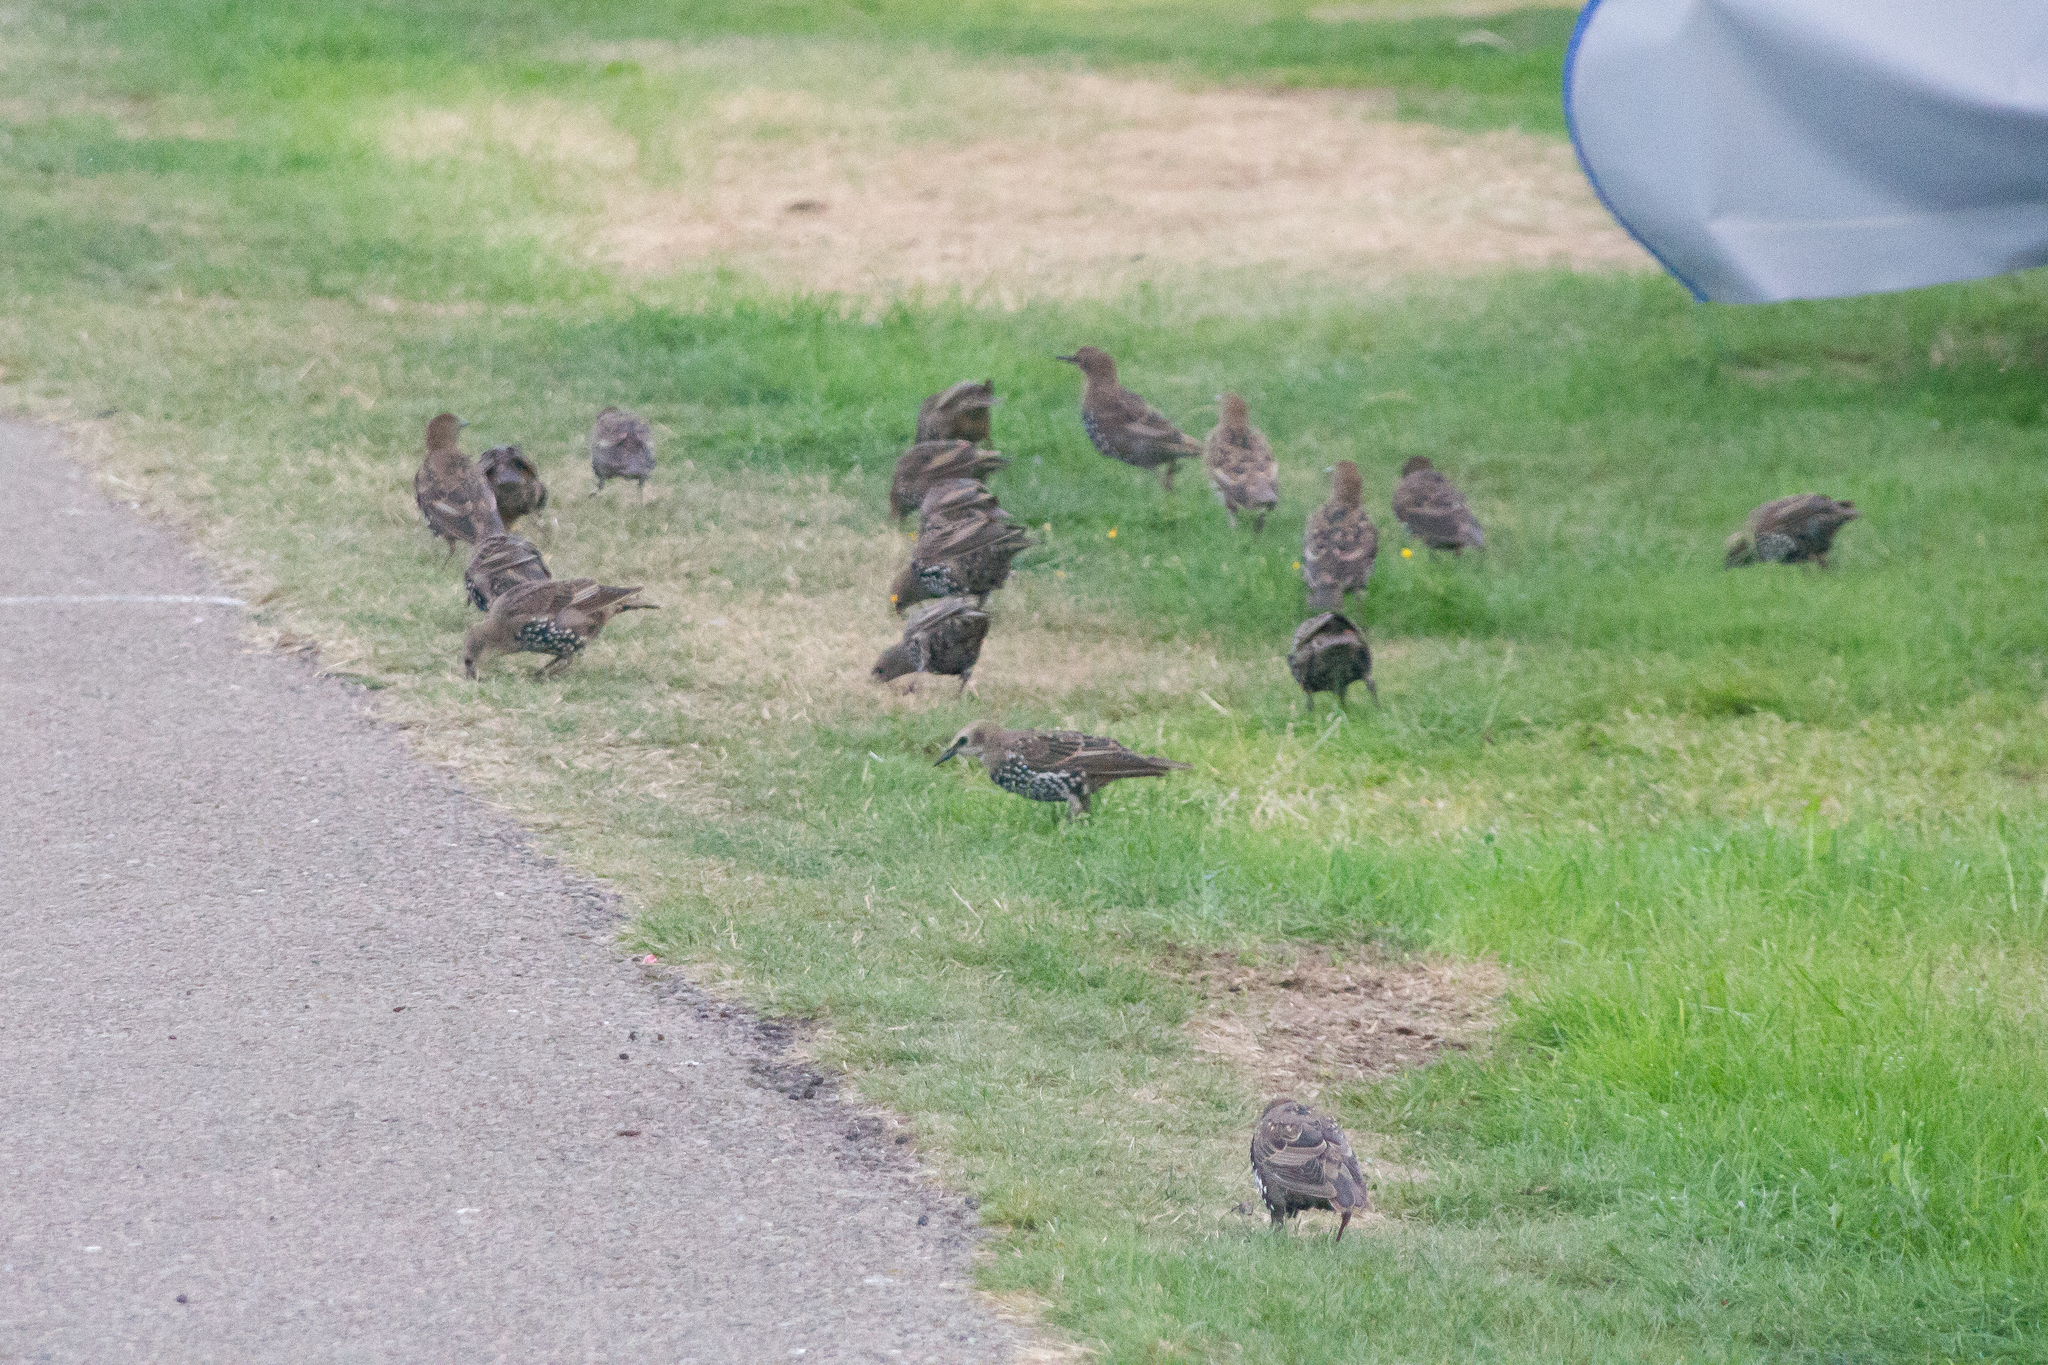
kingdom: Animalia
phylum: Chordata
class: Aves
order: Passeriformes
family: Sturnidae
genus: Sturnus
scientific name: Sturnus vulgaris
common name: Common starling
